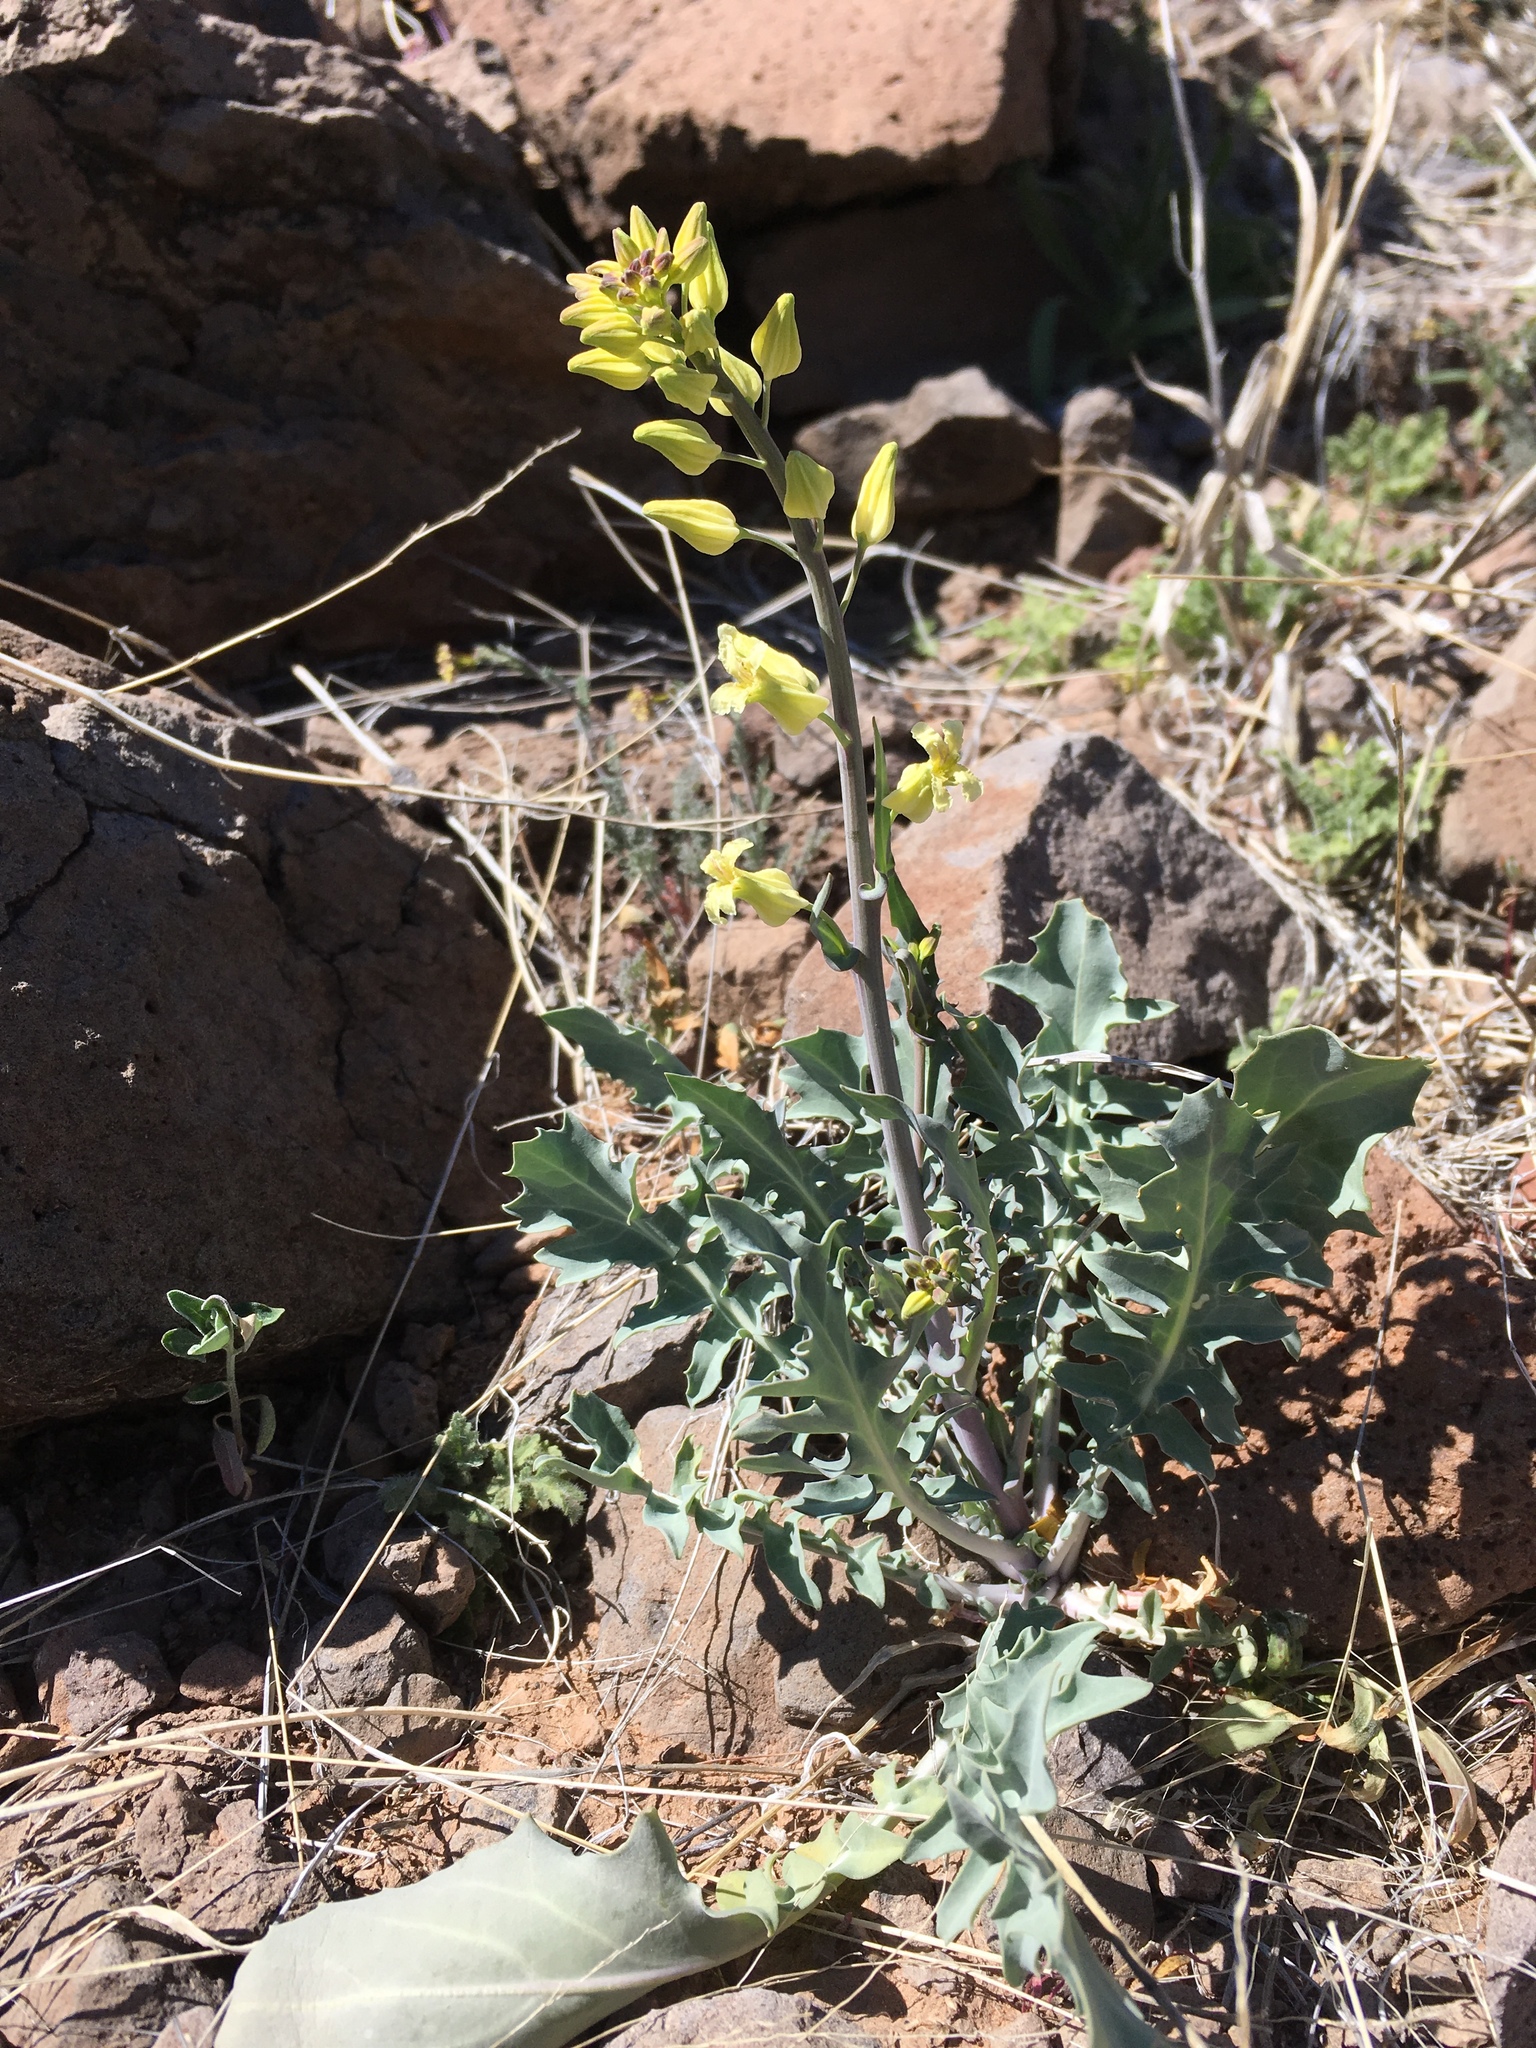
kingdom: Plantae
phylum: Tracheophyta
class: Magnoliopsida
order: Brassicales
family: Brassicaceae
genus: Streptanthus
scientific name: Streptanthus carinatus
